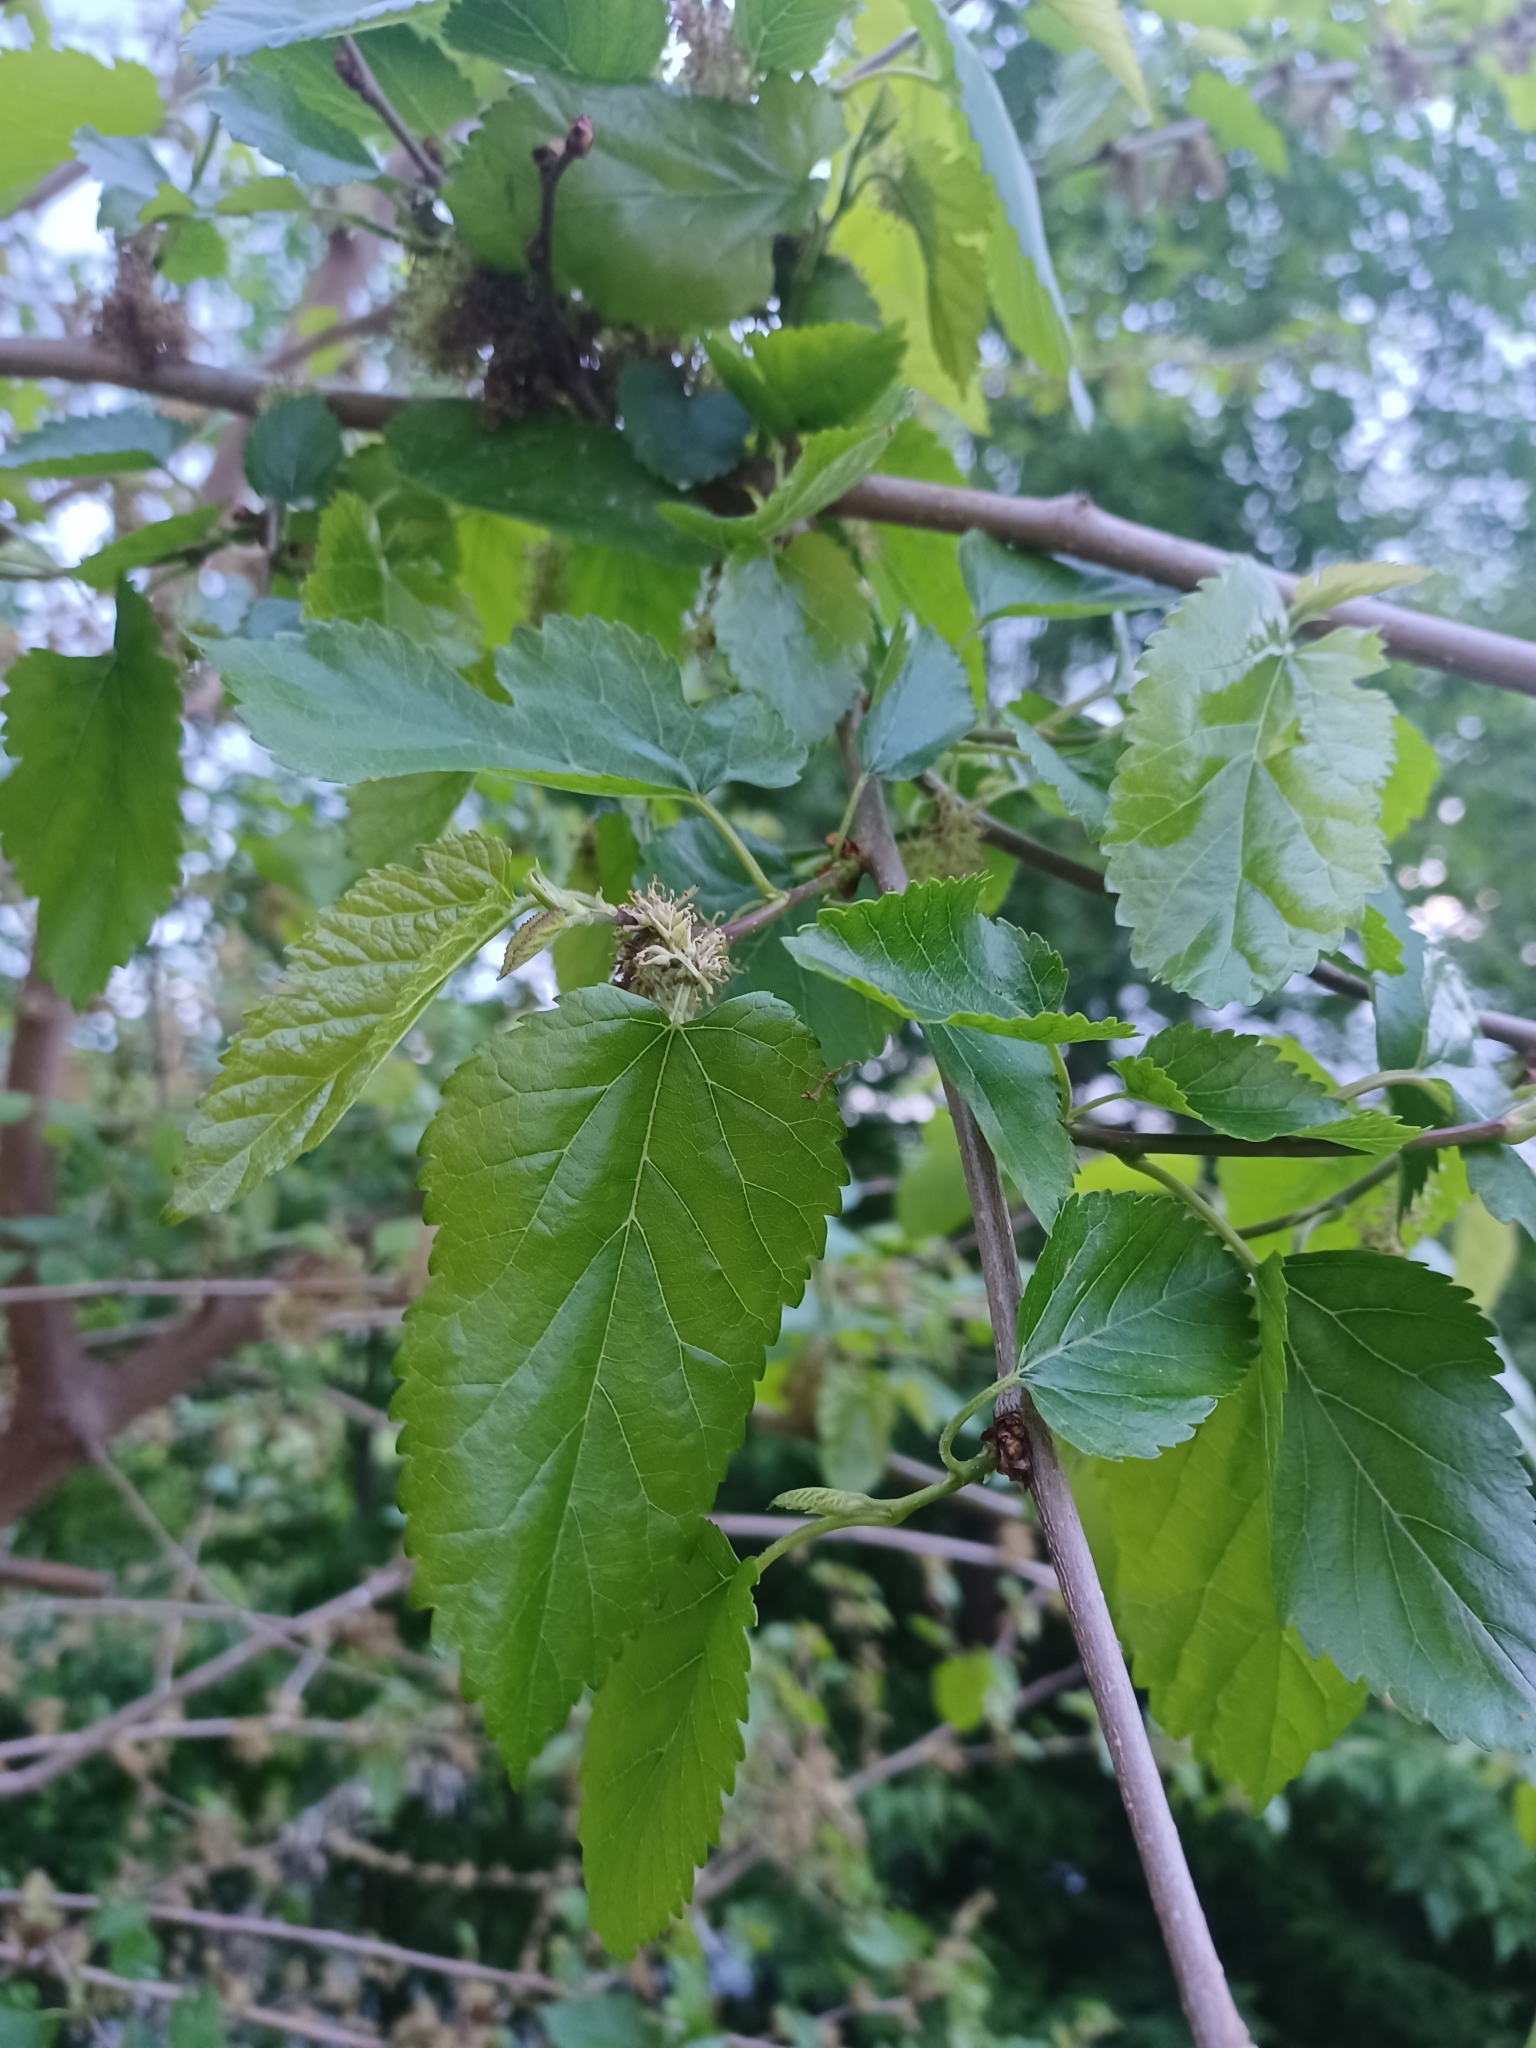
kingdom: Plantae
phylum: Tracheophyta
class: Magnoliopsida
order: Rosales
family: Moraceae
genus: Morus
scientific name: Morus alba
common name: White mulberry
